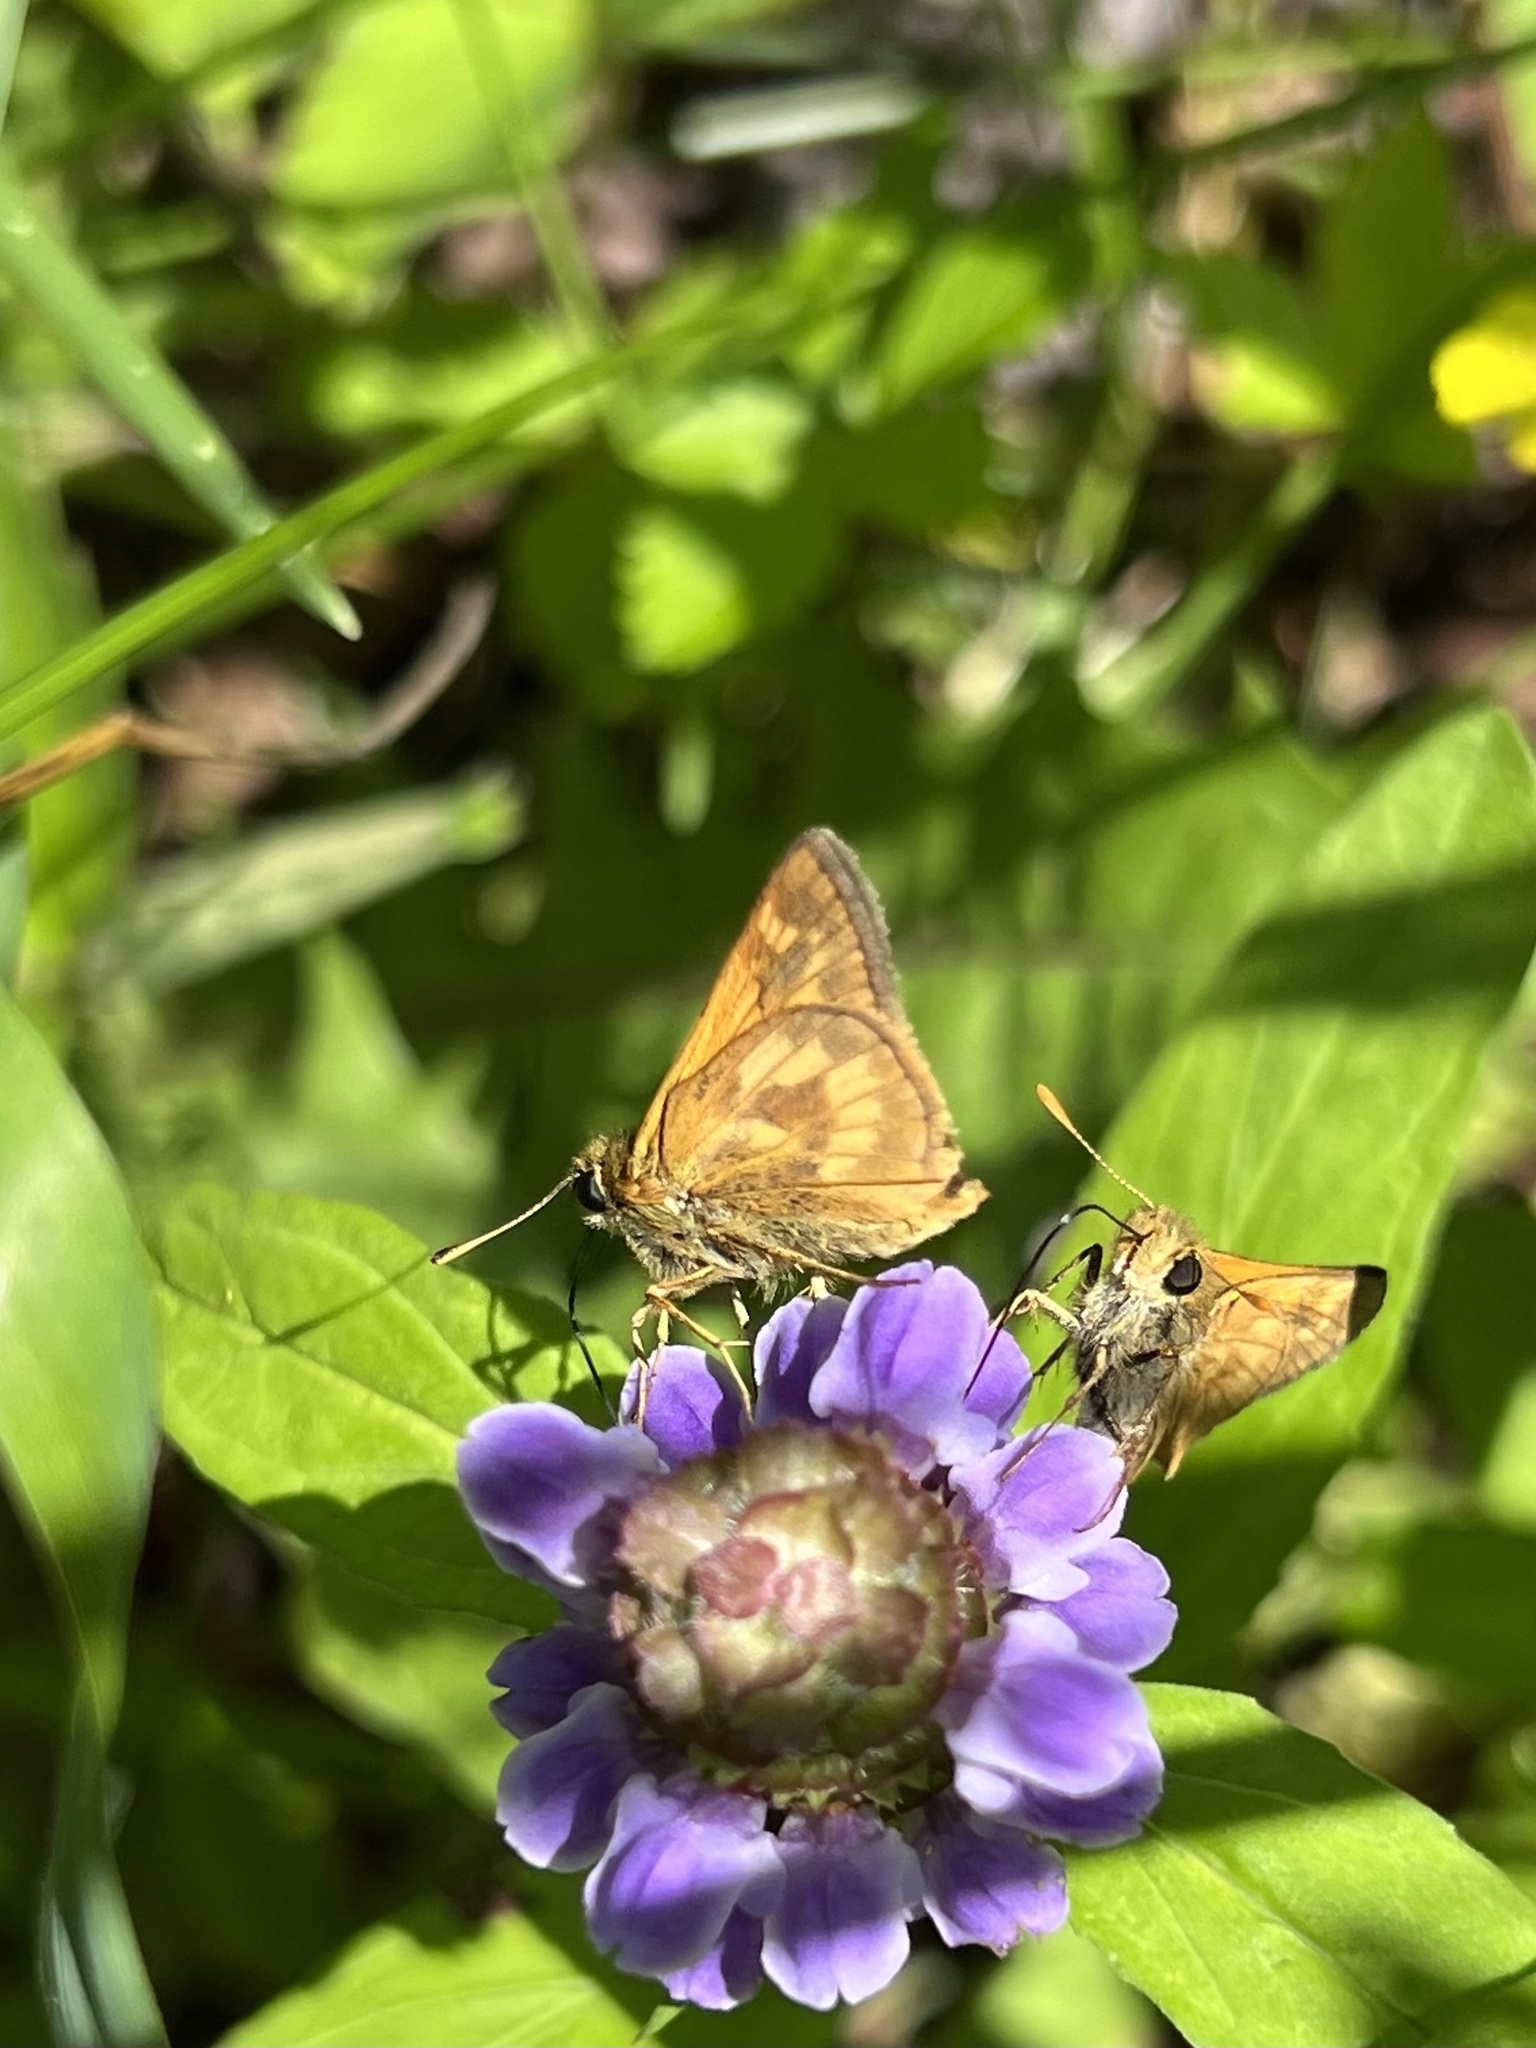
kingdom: Animalia
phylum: Arthropoda
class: Insecta
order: Lepidoptera
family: Hesperiidae
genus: Polites
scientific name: Polites mystic
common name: Long dash
